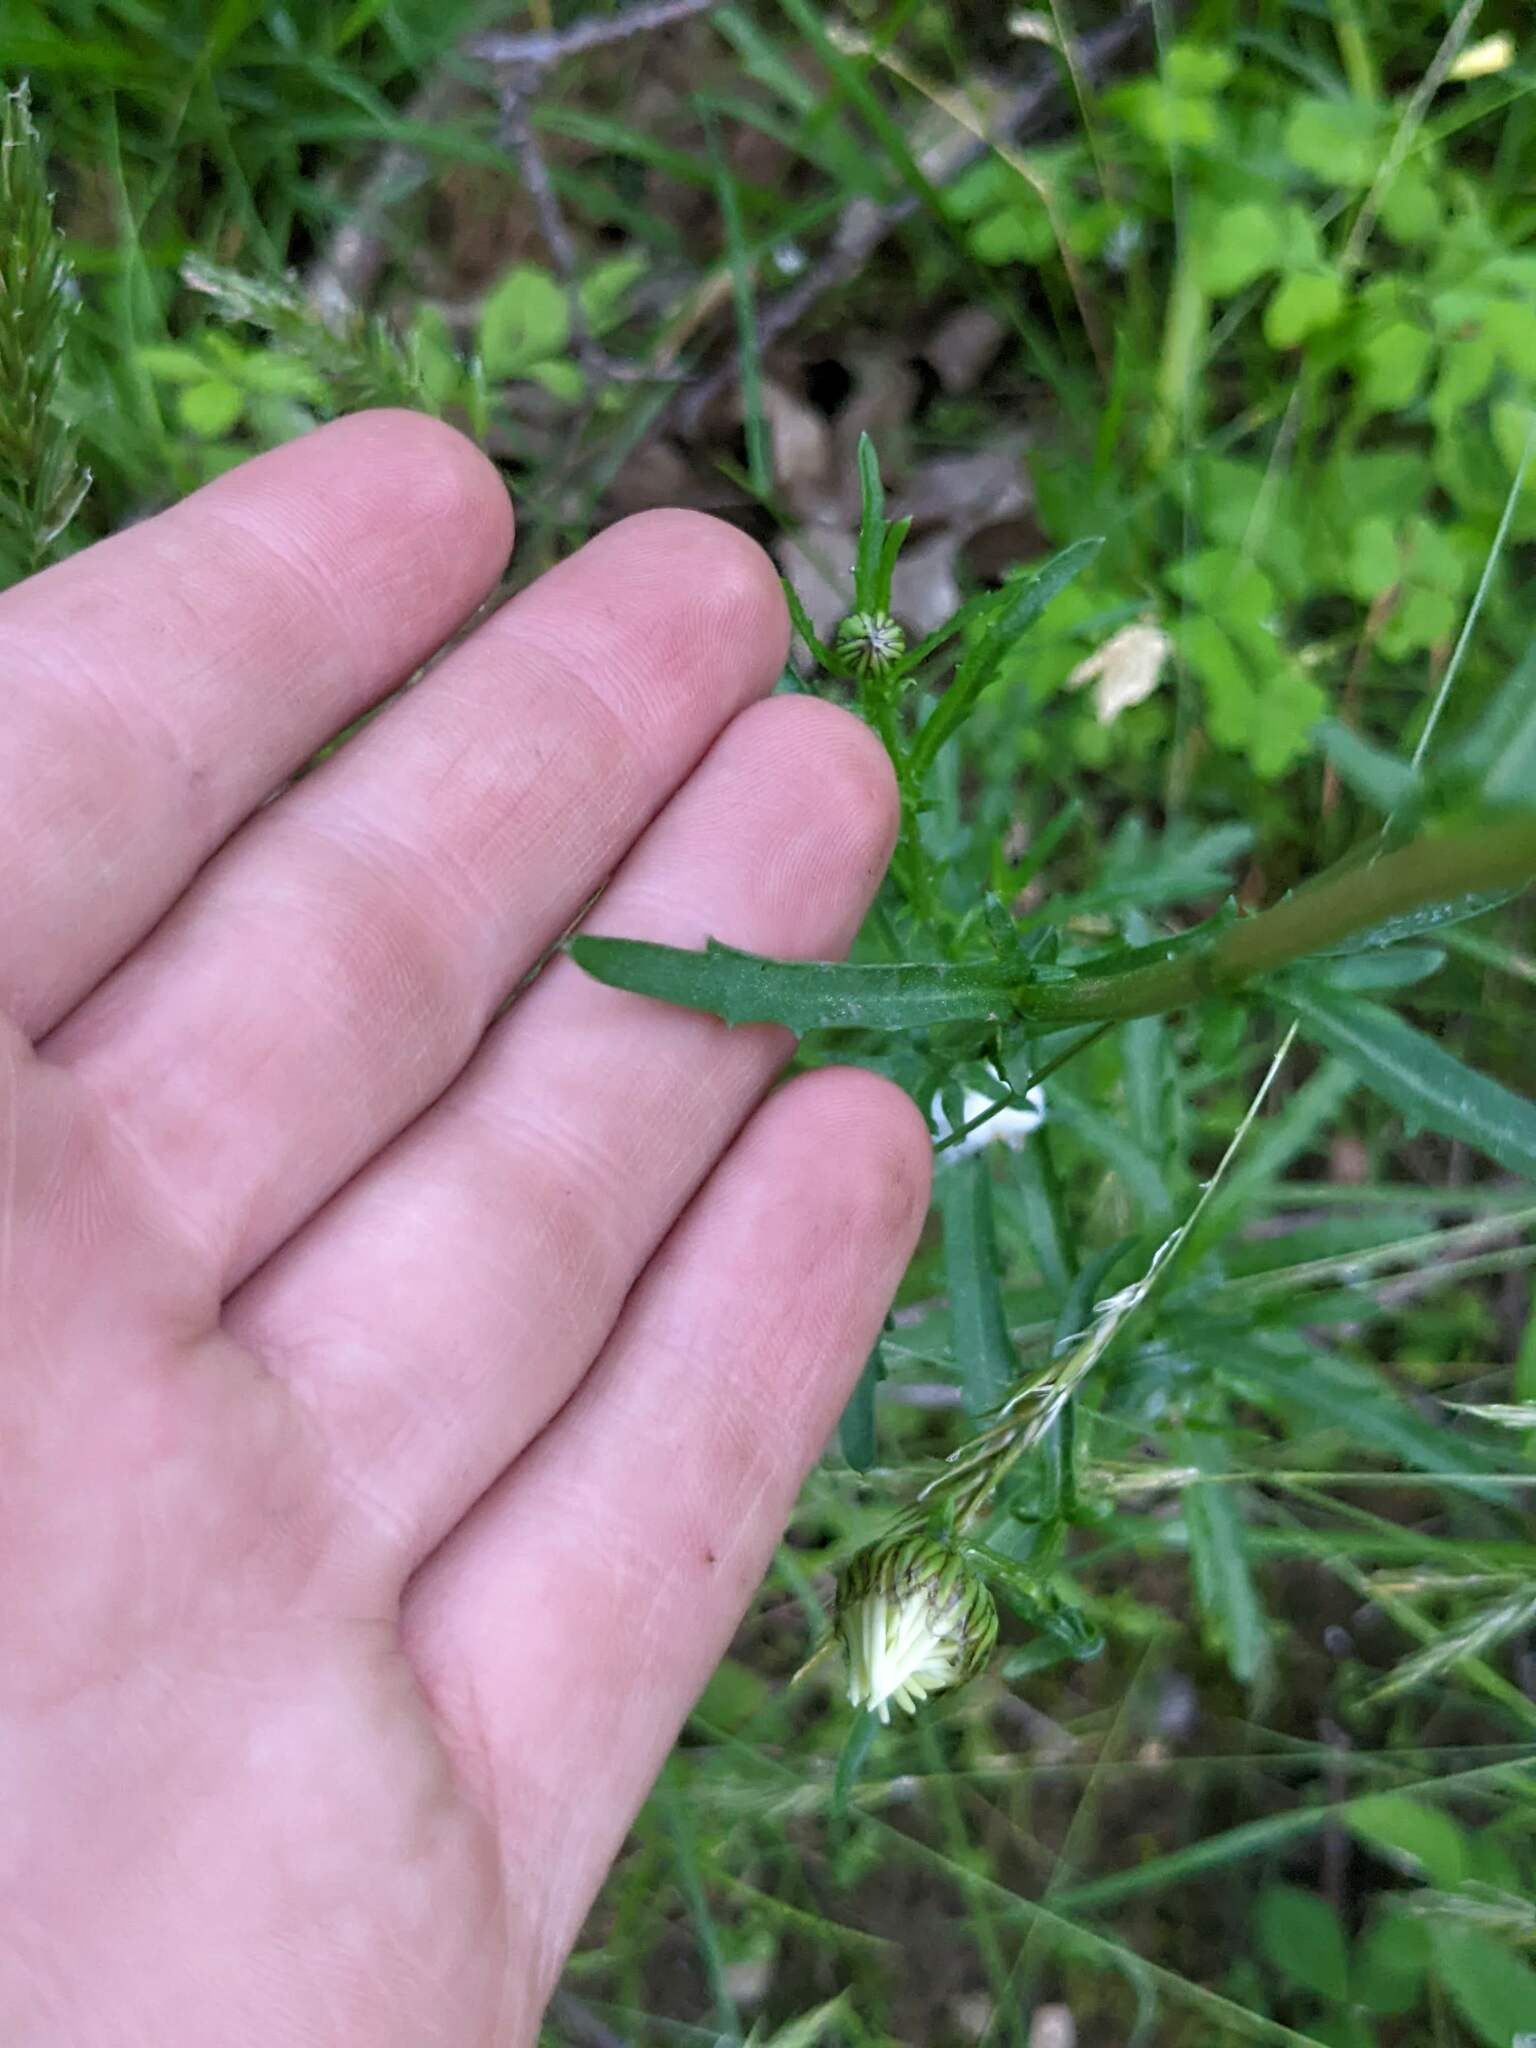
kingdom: Plantae
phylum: Tracheophyta
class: Magnoliopsida
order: Asterales
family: Asteraceae
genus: Leucanthemum
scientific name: Leucanthemum vulgare
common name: Oxeye daisy
